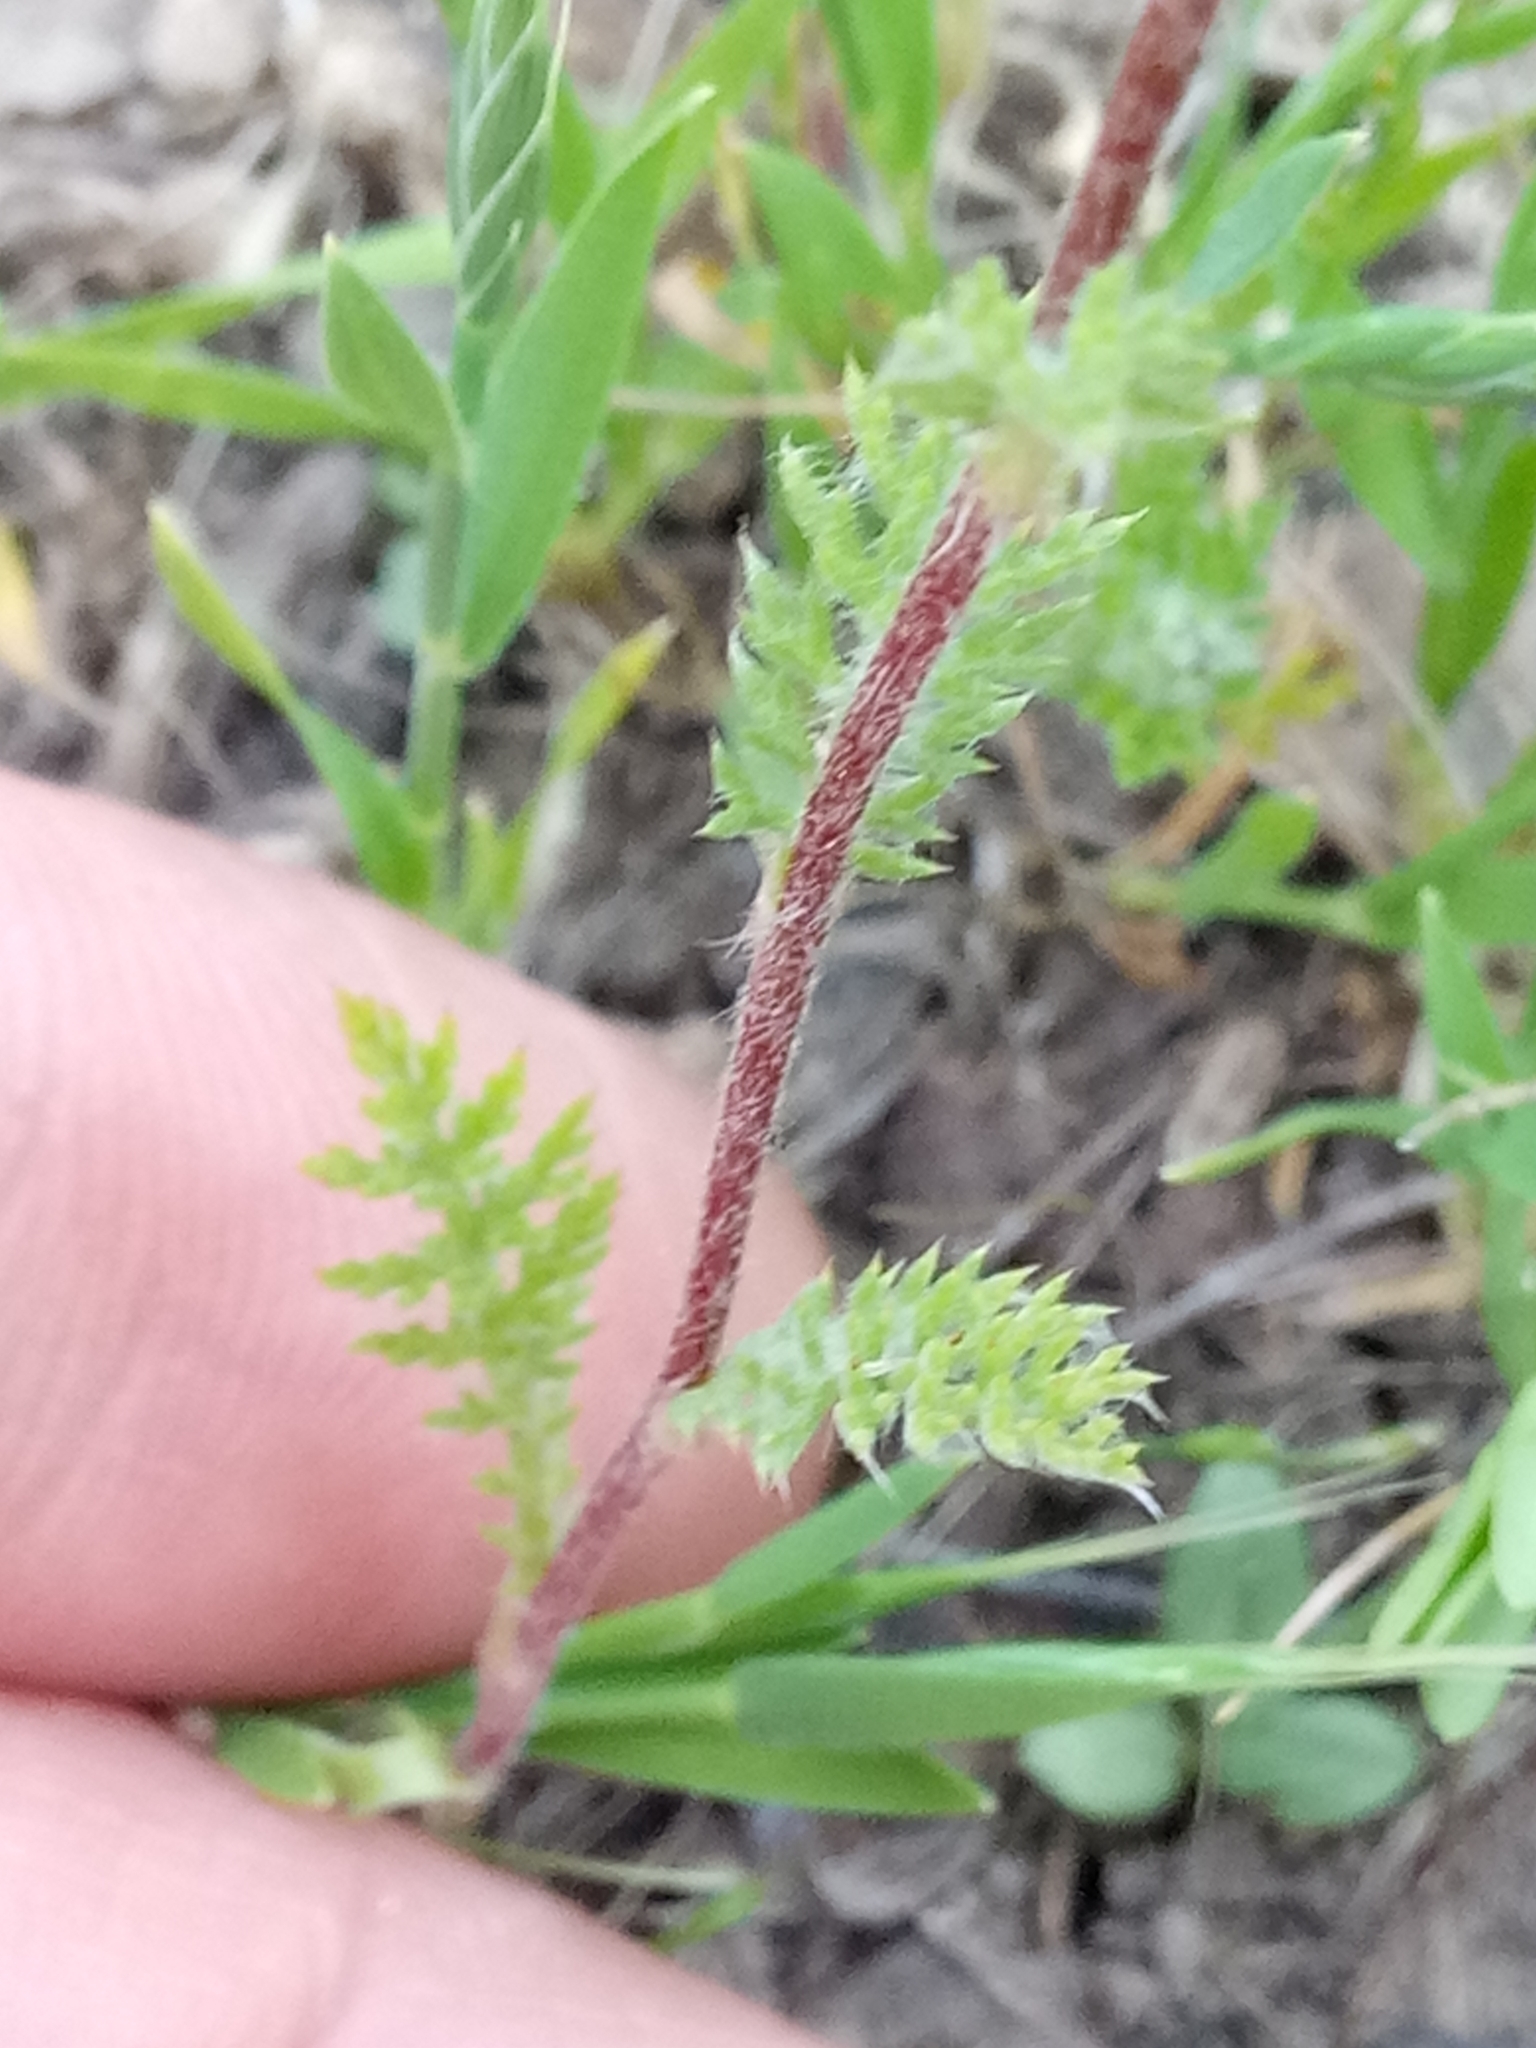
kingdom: Plantae
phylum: Tracheophyta
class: Magnoliopsida
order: Asterales
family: Asteraceae
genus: Anacyclus
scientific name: Anacyclus clavatus
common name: Whitebuttons
